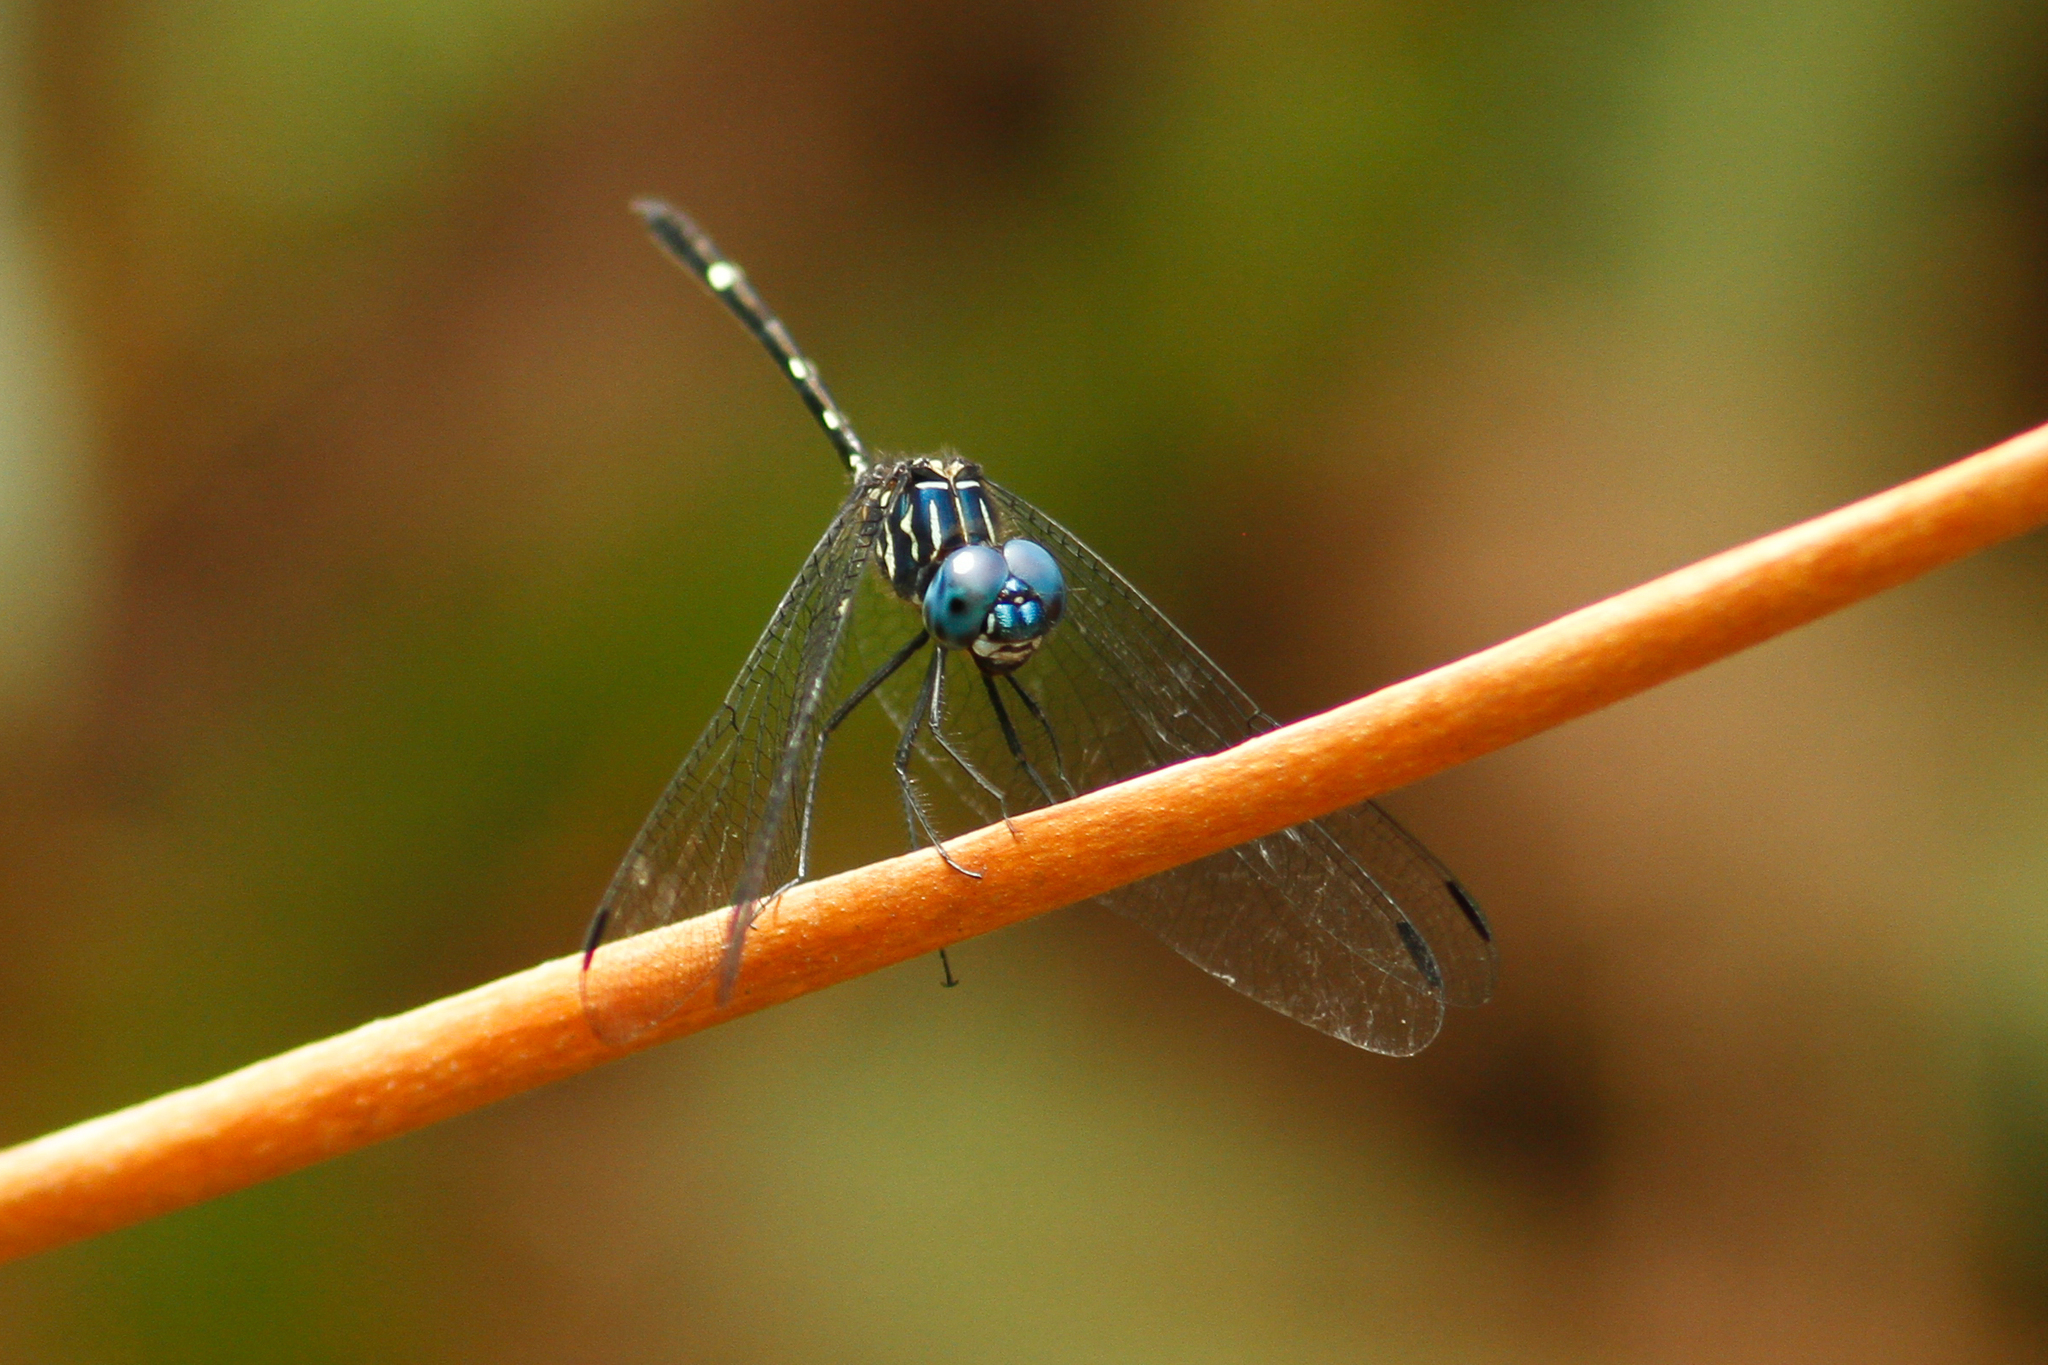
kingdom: Animalia
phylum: Arthropoda
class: Insecta
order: Odonata
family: Libellulidae
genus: Dythemis
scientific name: Dythemis nigra
